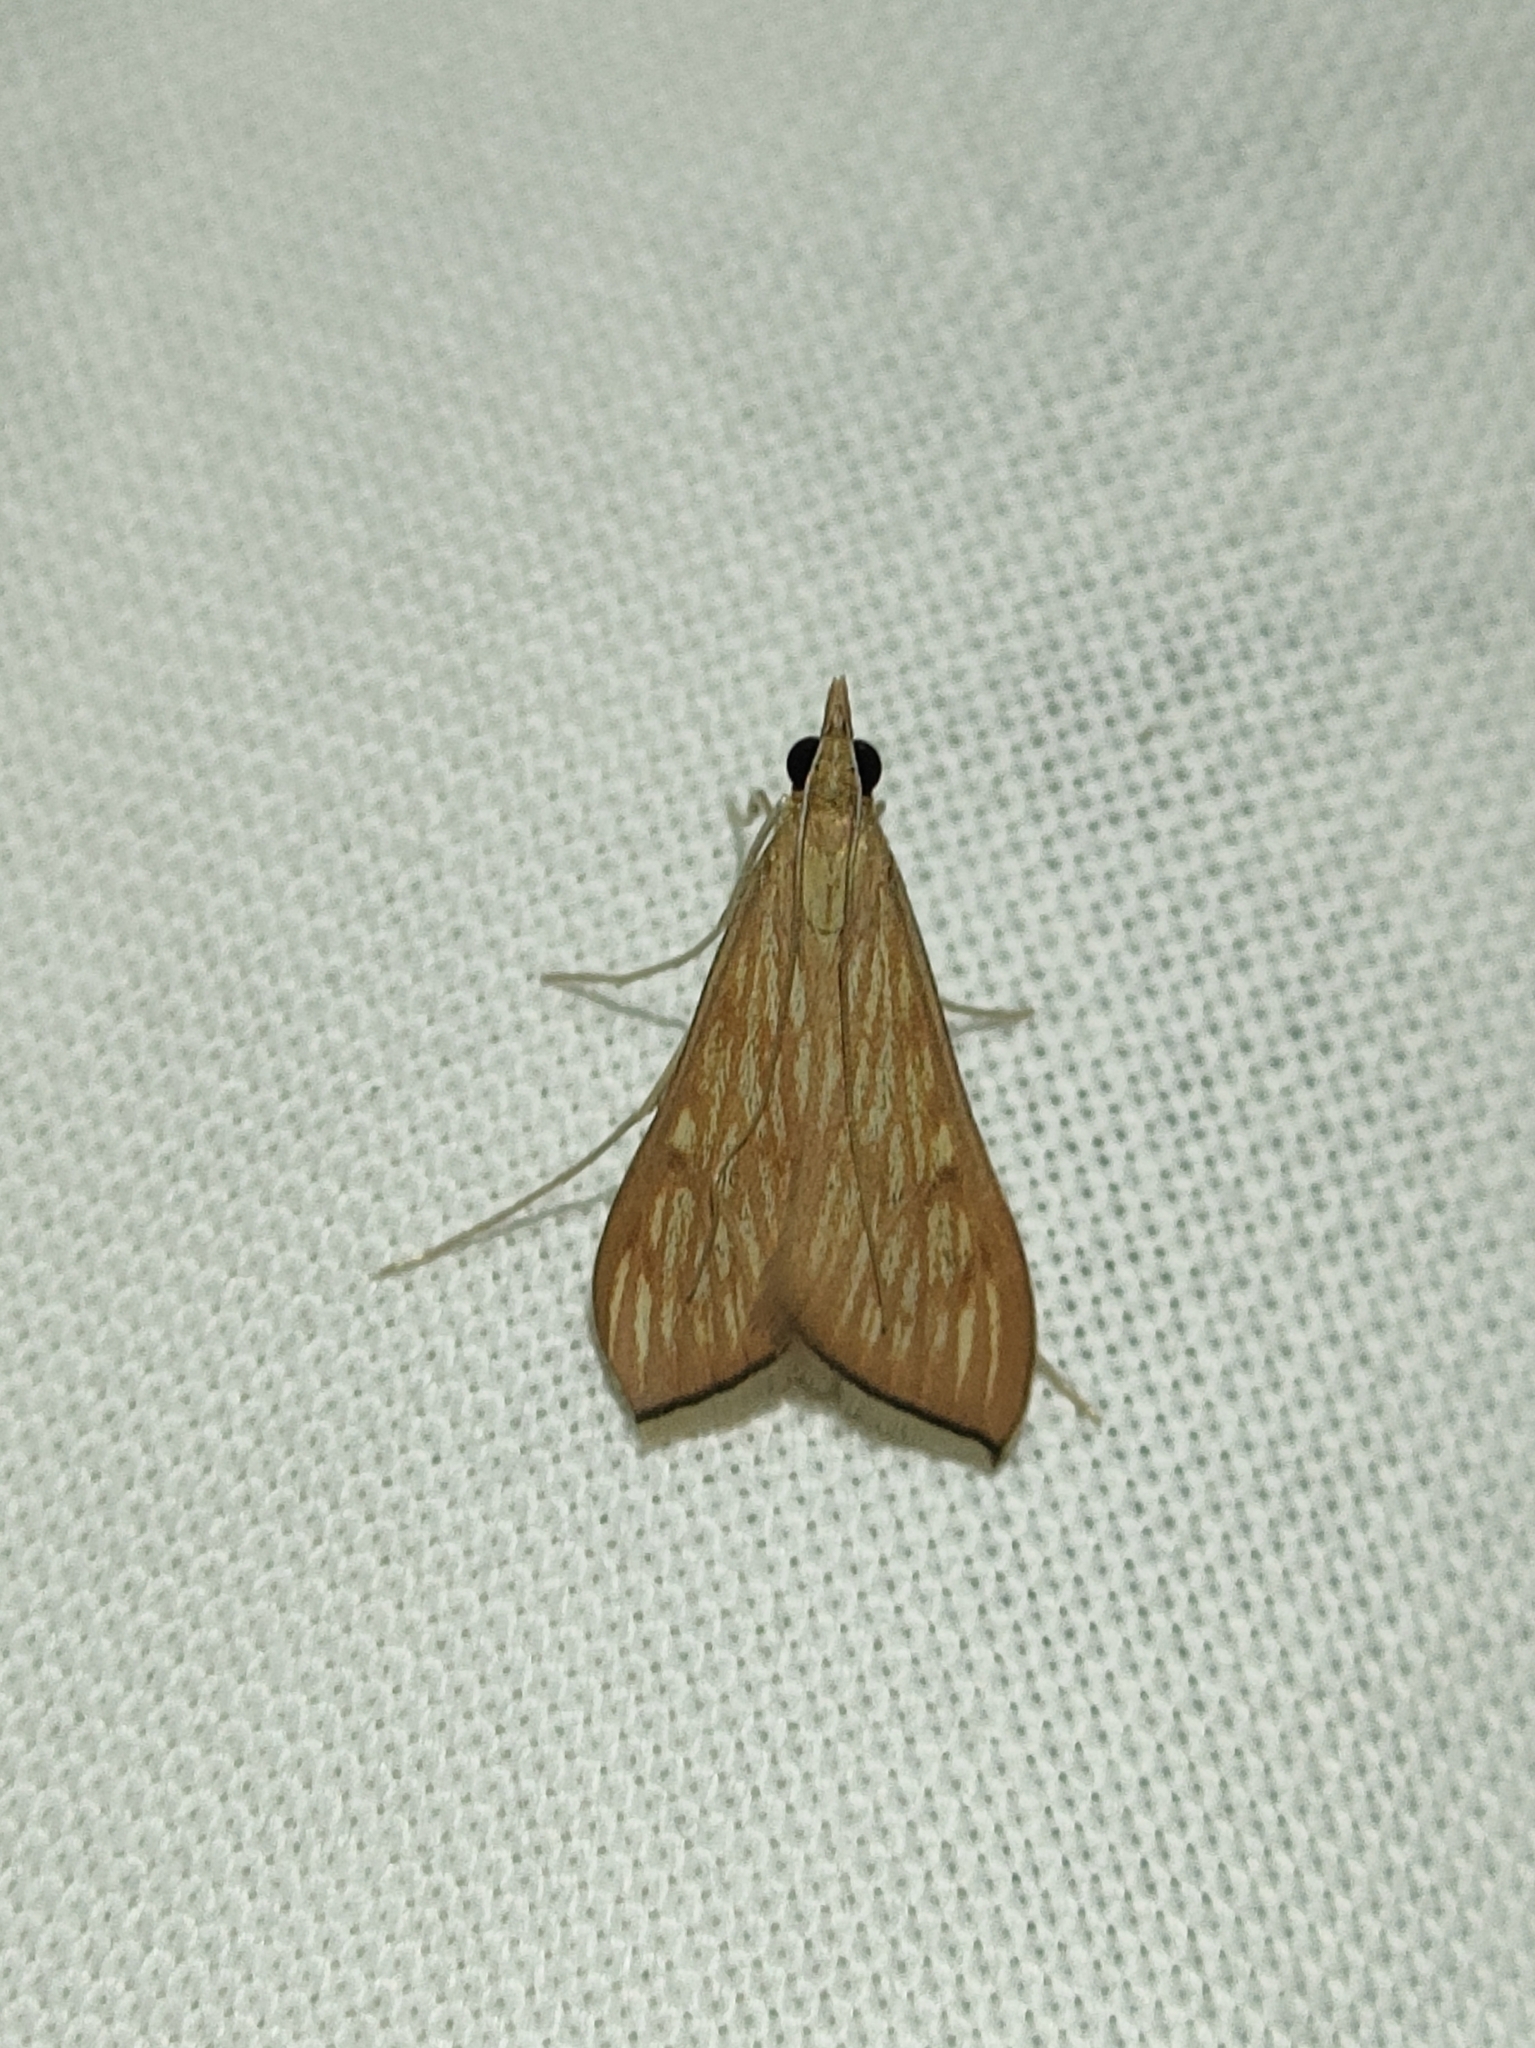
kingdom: Animalia
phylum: Arthropoda
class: Insecta
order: Lepidoptera
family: Crambidae
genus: Antigastra
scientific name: Antigastra catalaunalis
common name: Spanish dot
